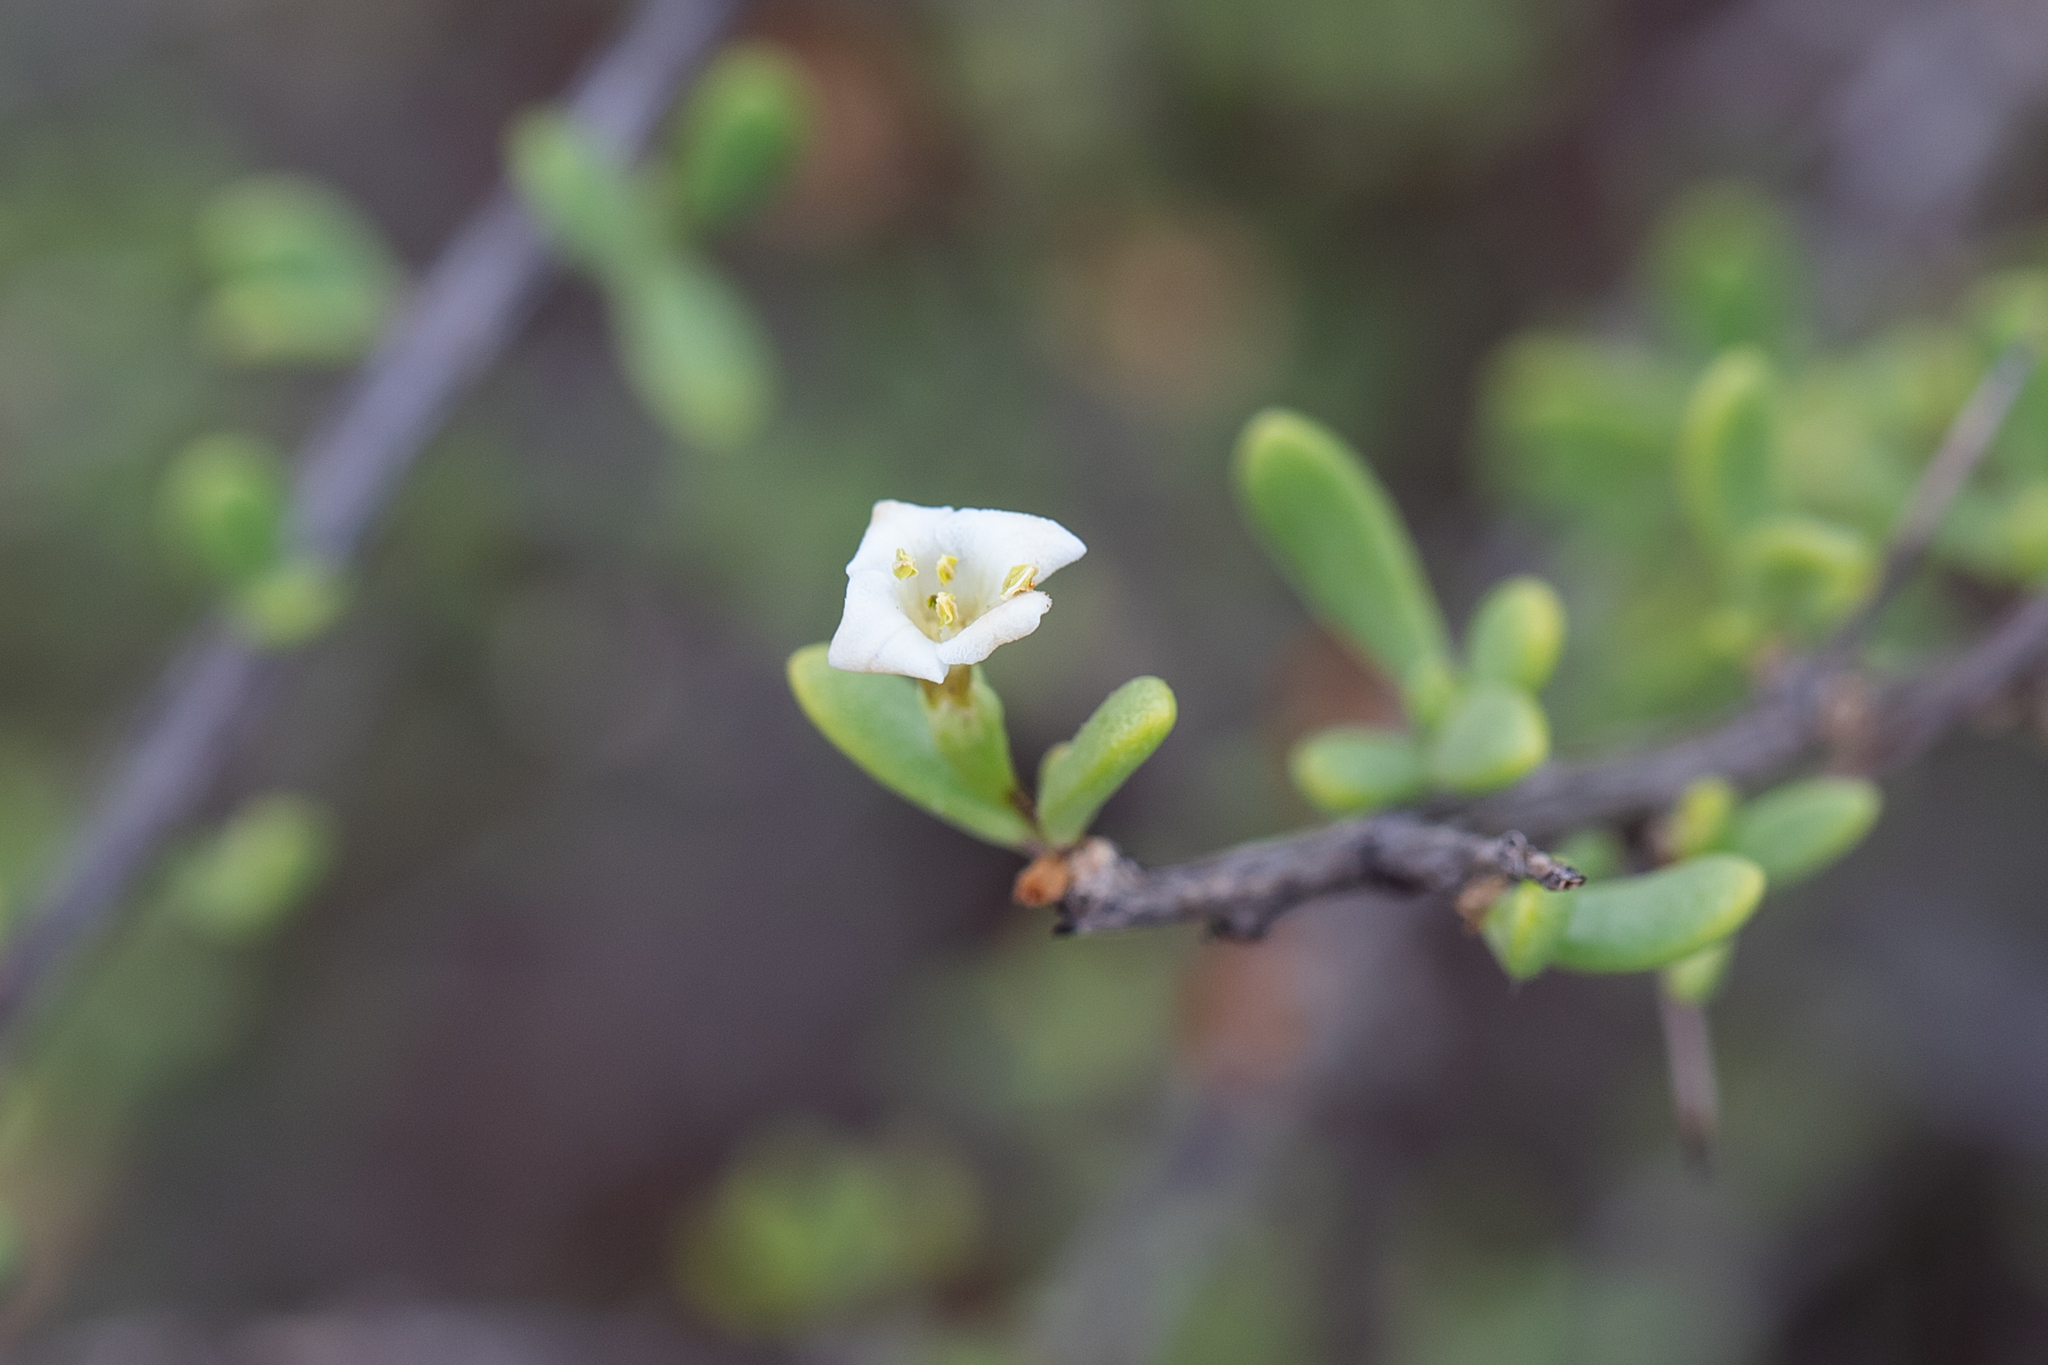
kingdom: Plantae
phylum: Tracheophyta
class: Magnoliopsida
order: Solanales
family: Solanaceae
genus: Lycium
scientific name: Lycium australe
